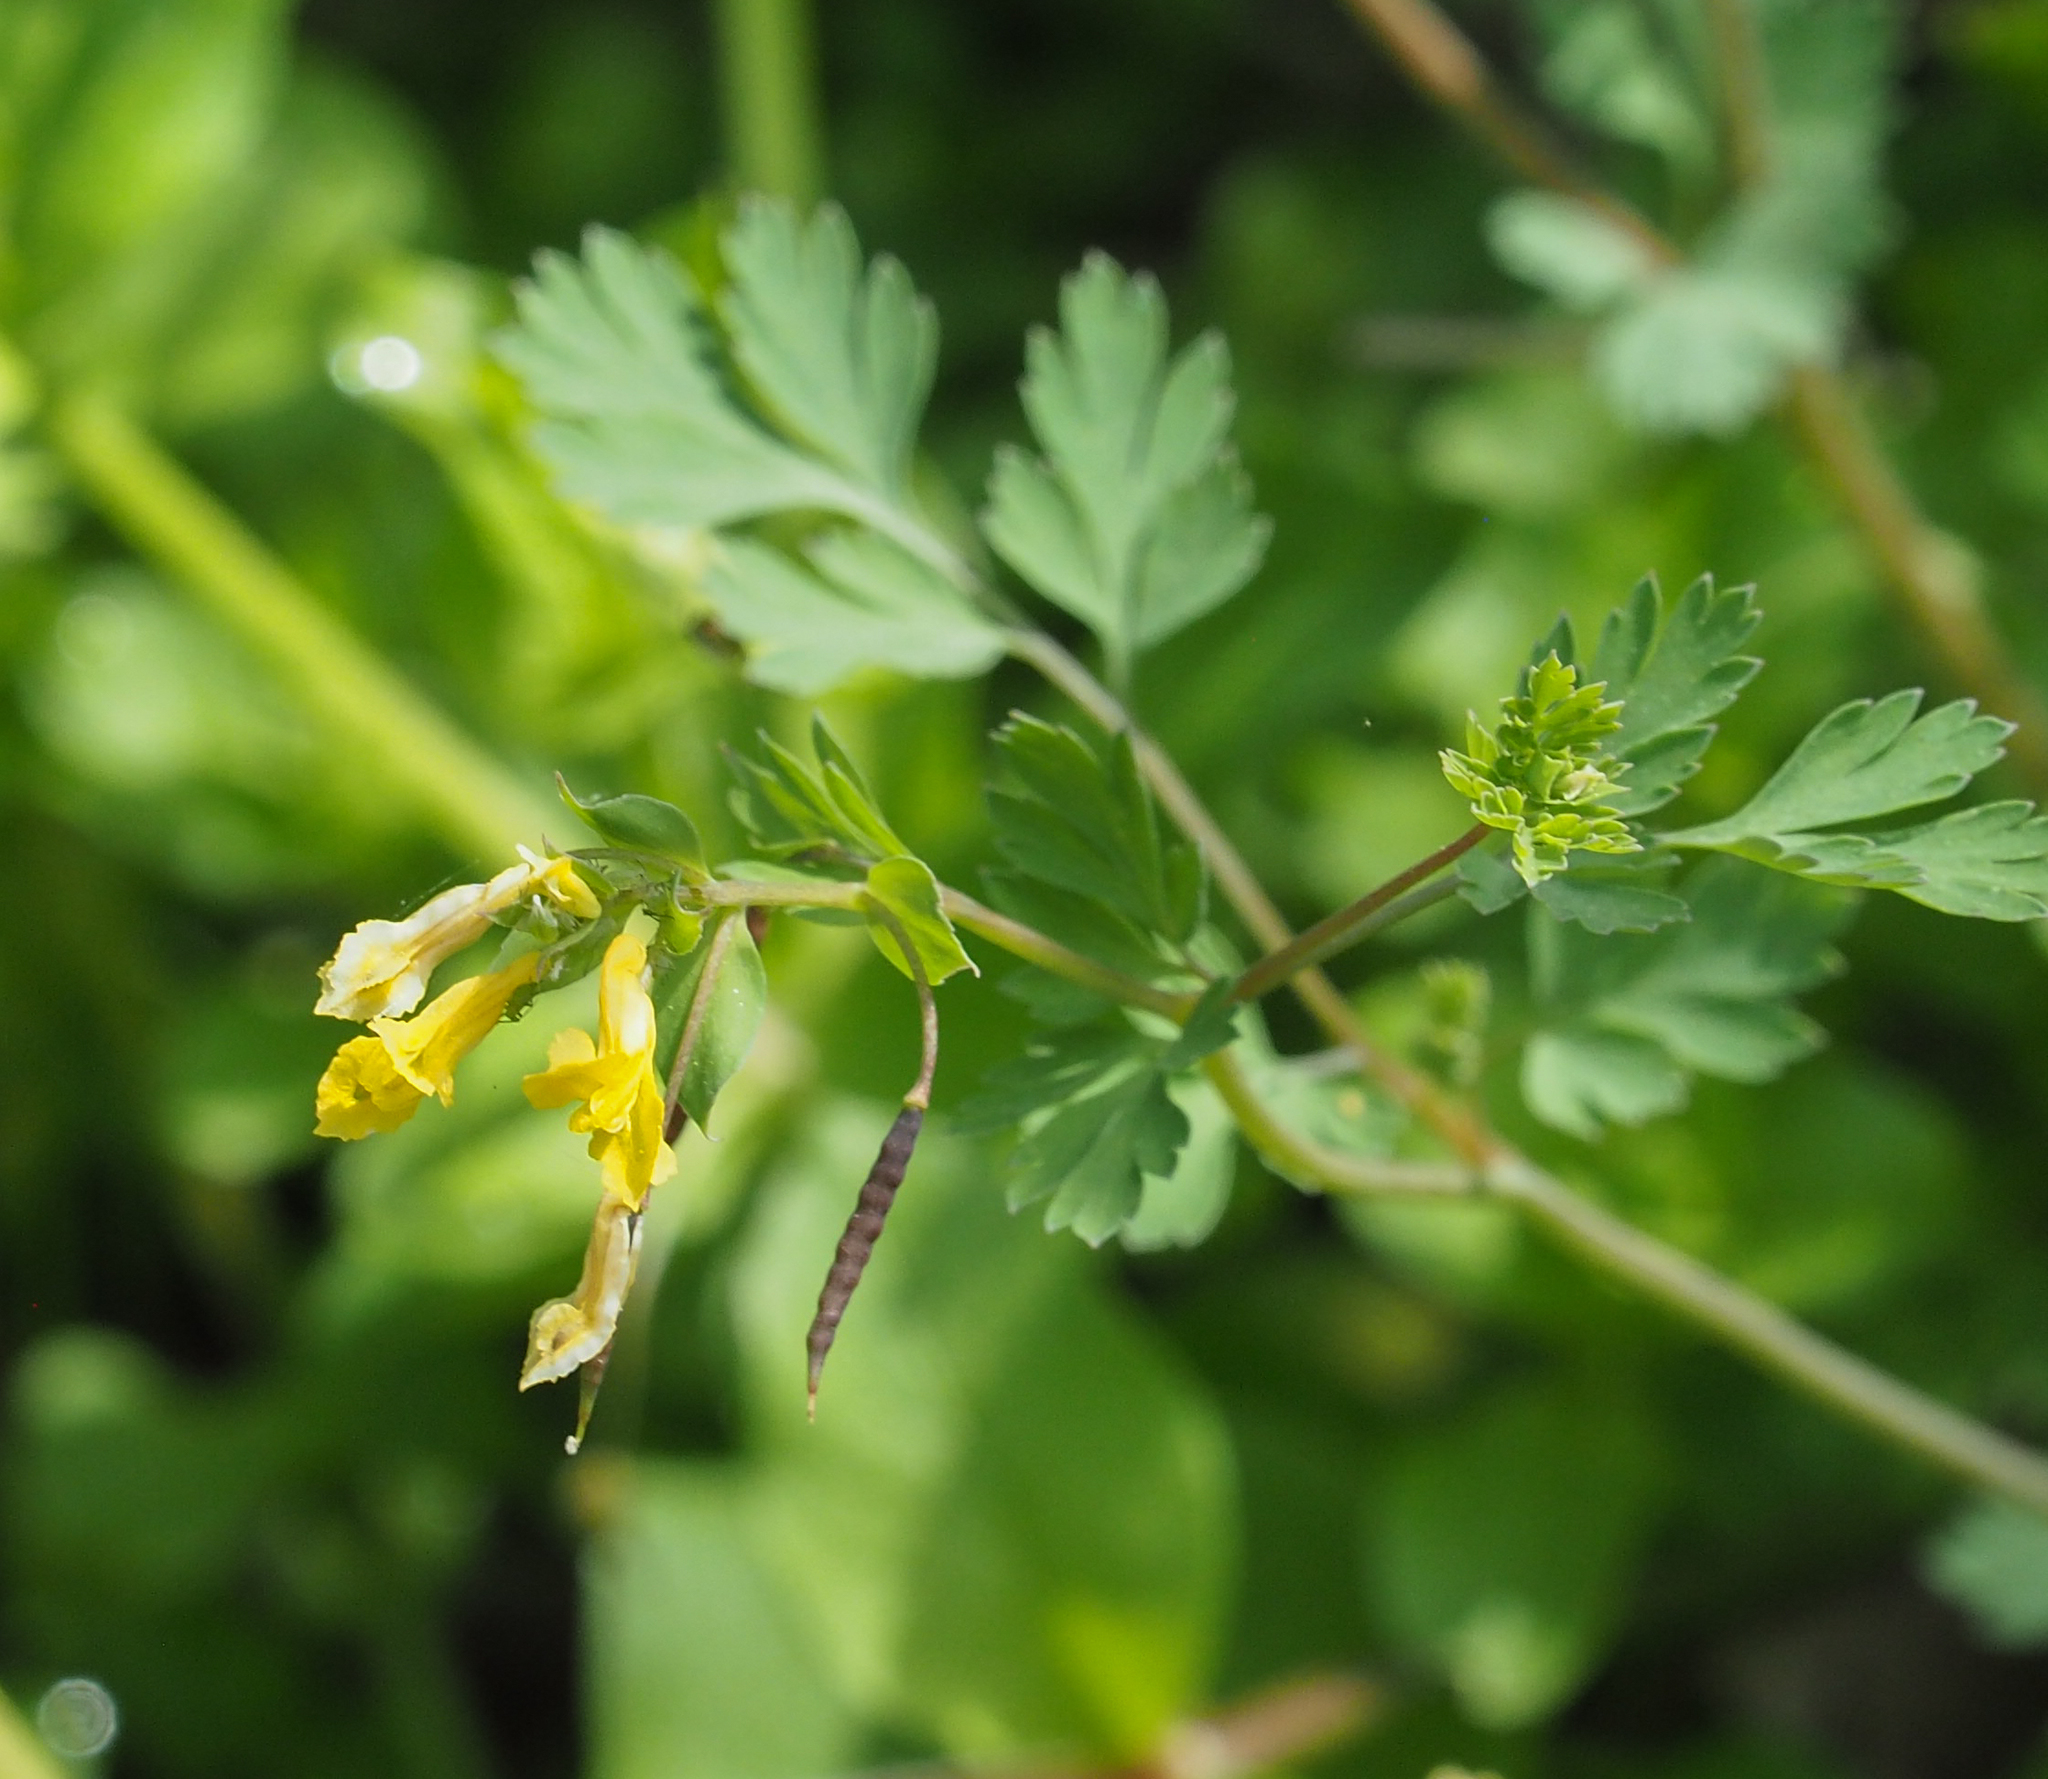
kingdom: Plantae
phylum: Tracheophyta
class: Magnoliopsida
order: Ranunculales
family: Papaveraceae
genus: Corydalis
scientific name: Corydalis flavula
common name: Yellow corydalis
